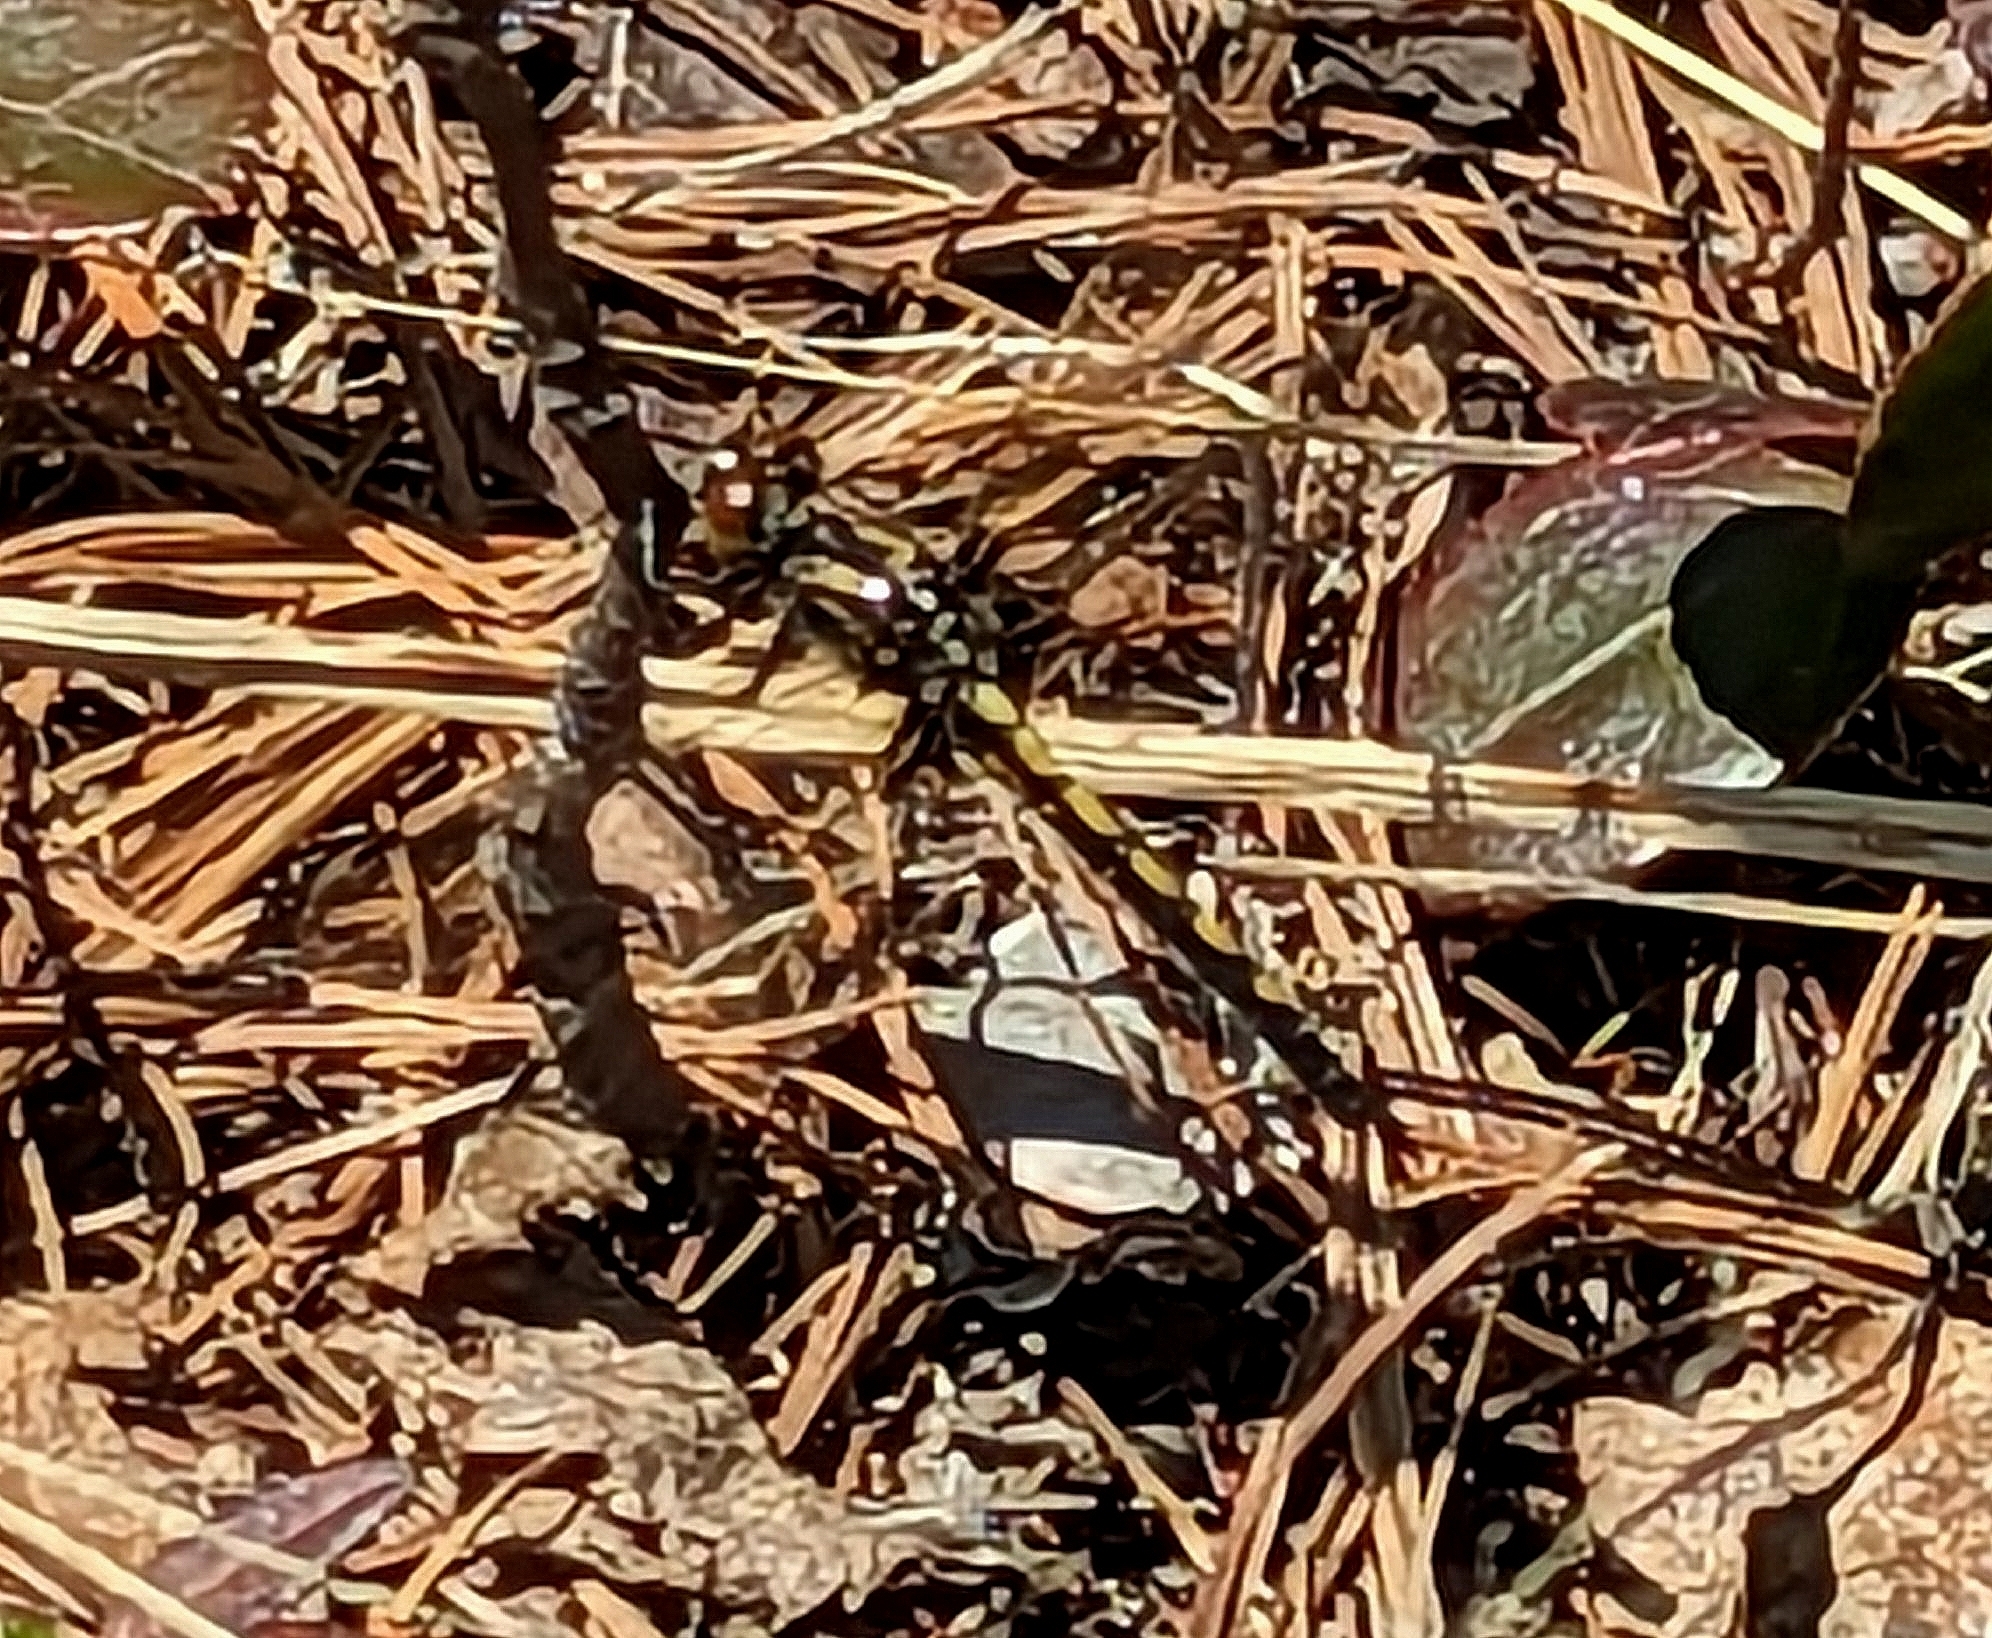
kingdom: Animalia
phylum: Arthropoda
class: Insecta
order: Odonata
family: Libellulidae
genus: Leucorrhinia
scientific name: Leucorrhinia hudsonica
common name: Hudsonian whiteface
